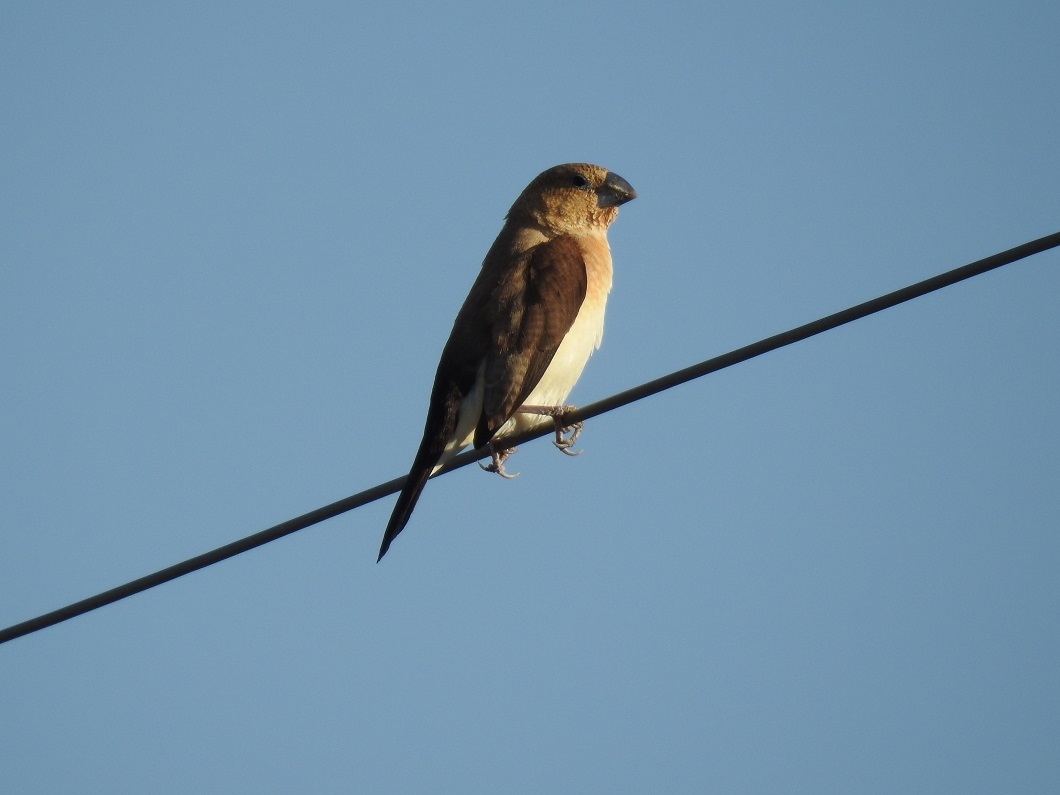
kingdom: Animalia
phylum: Chordata
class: Aves
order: Passeriformes
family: Estrildidae
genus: Euodice
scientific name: Euodice cantans
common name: African silverbill
